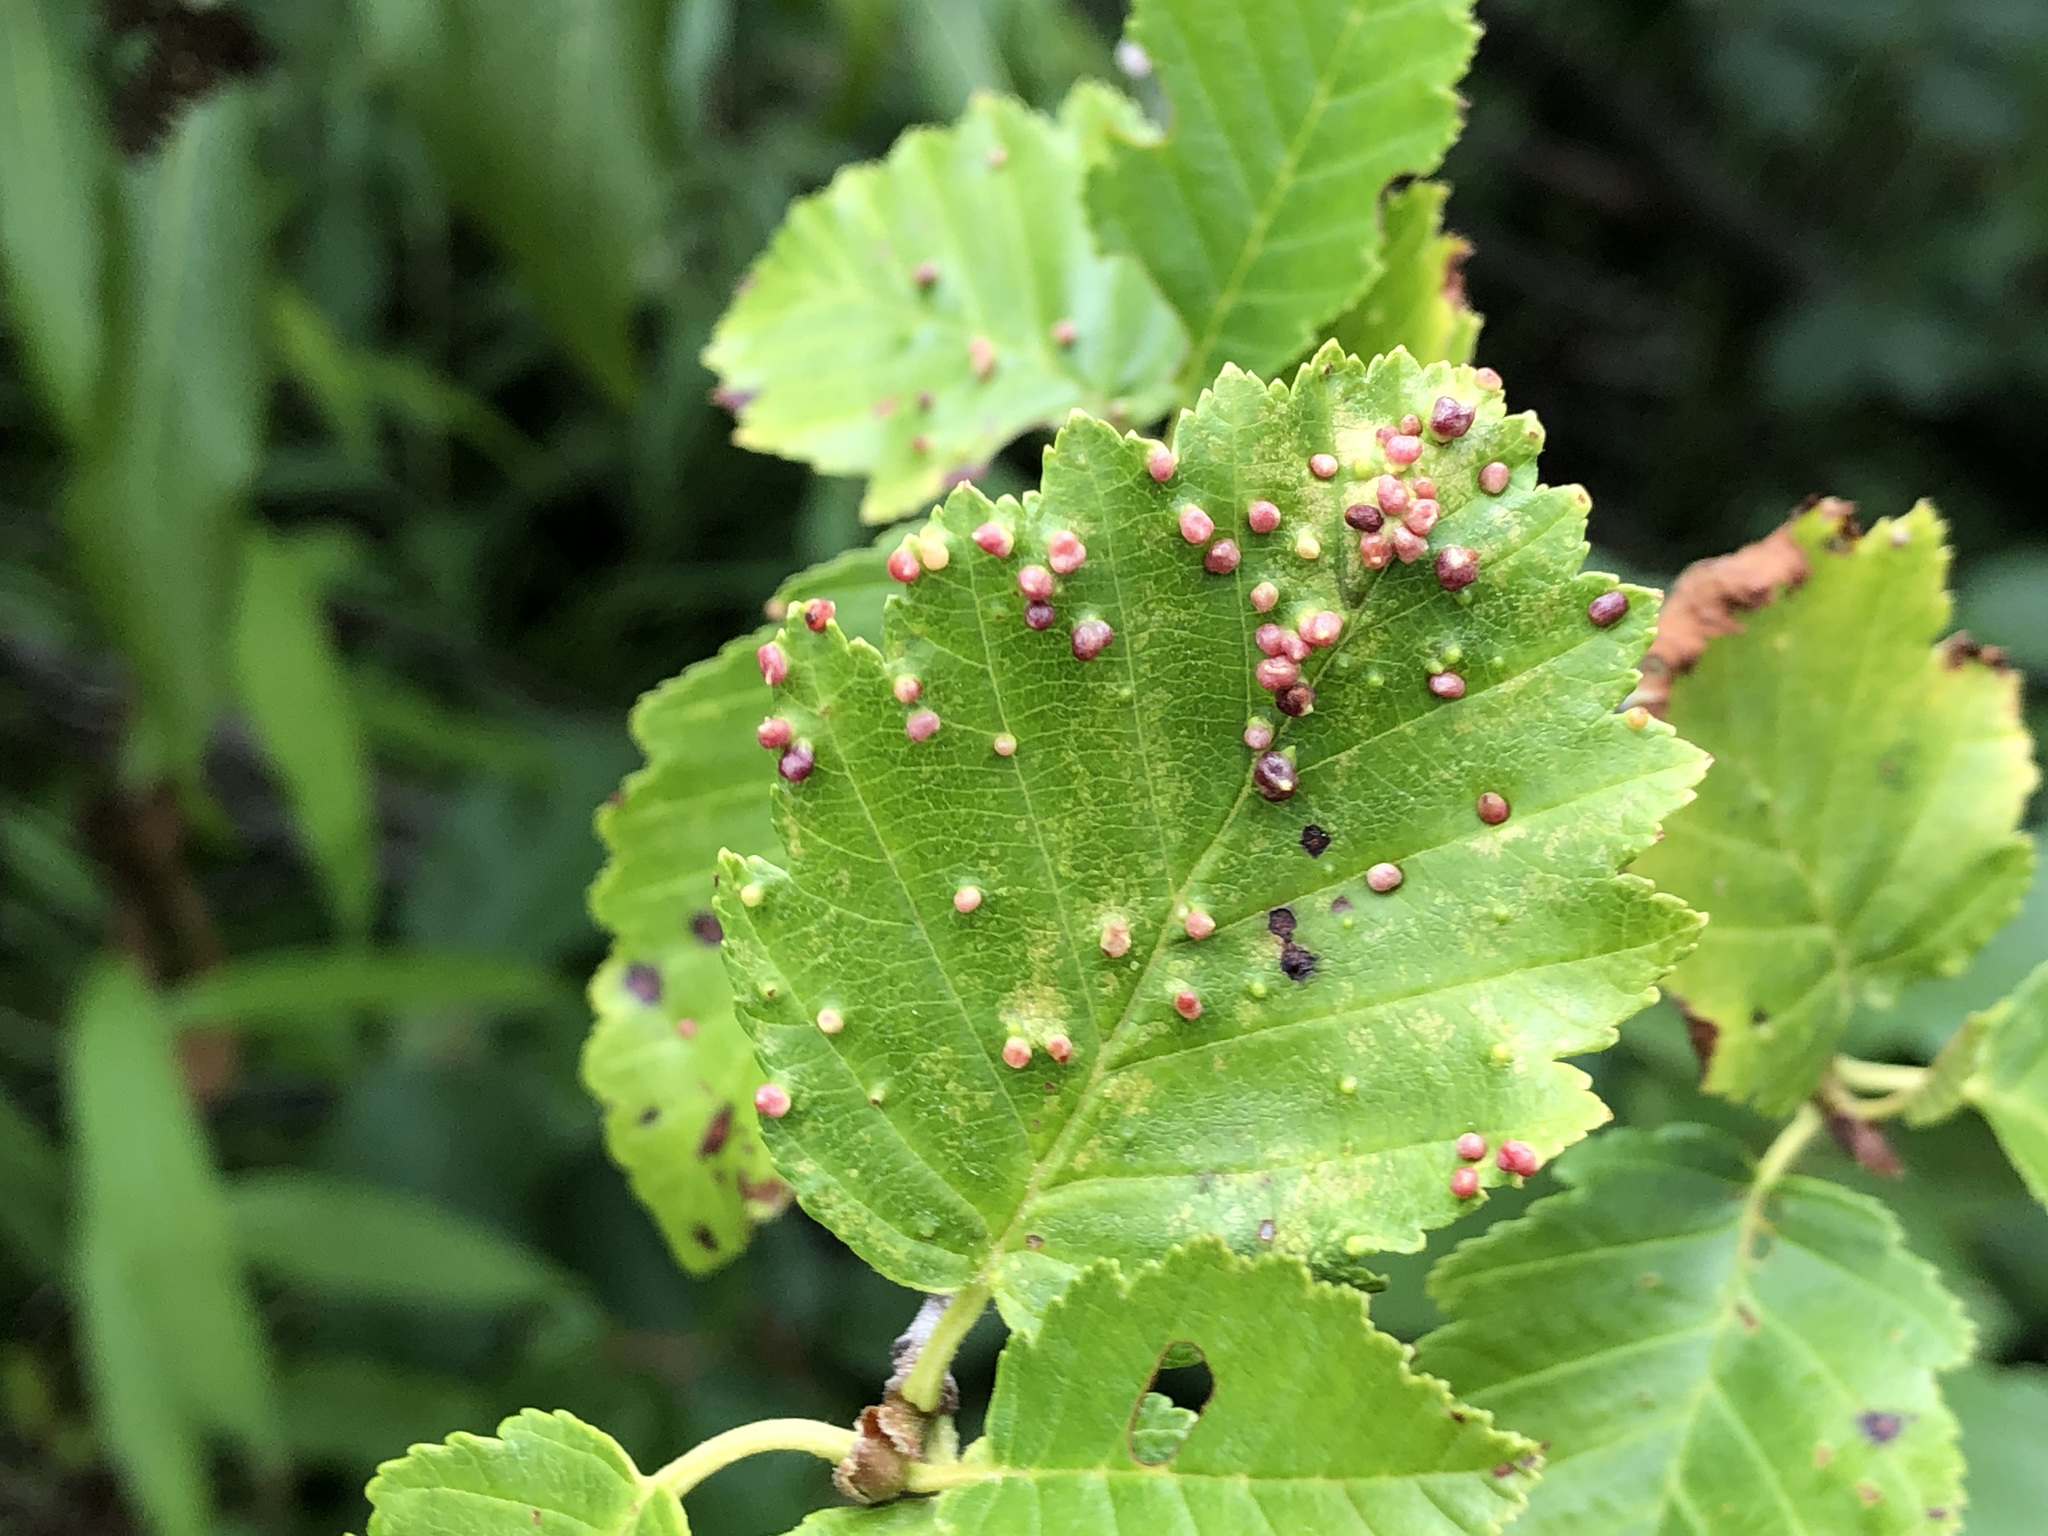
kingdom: Animalia
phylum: Arthropoda
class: Arachnida
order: Trombidiformes
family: Eriophyidae
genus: Eriophyes
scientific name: Eriophyes laevis
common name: Alder leaf gall mite
